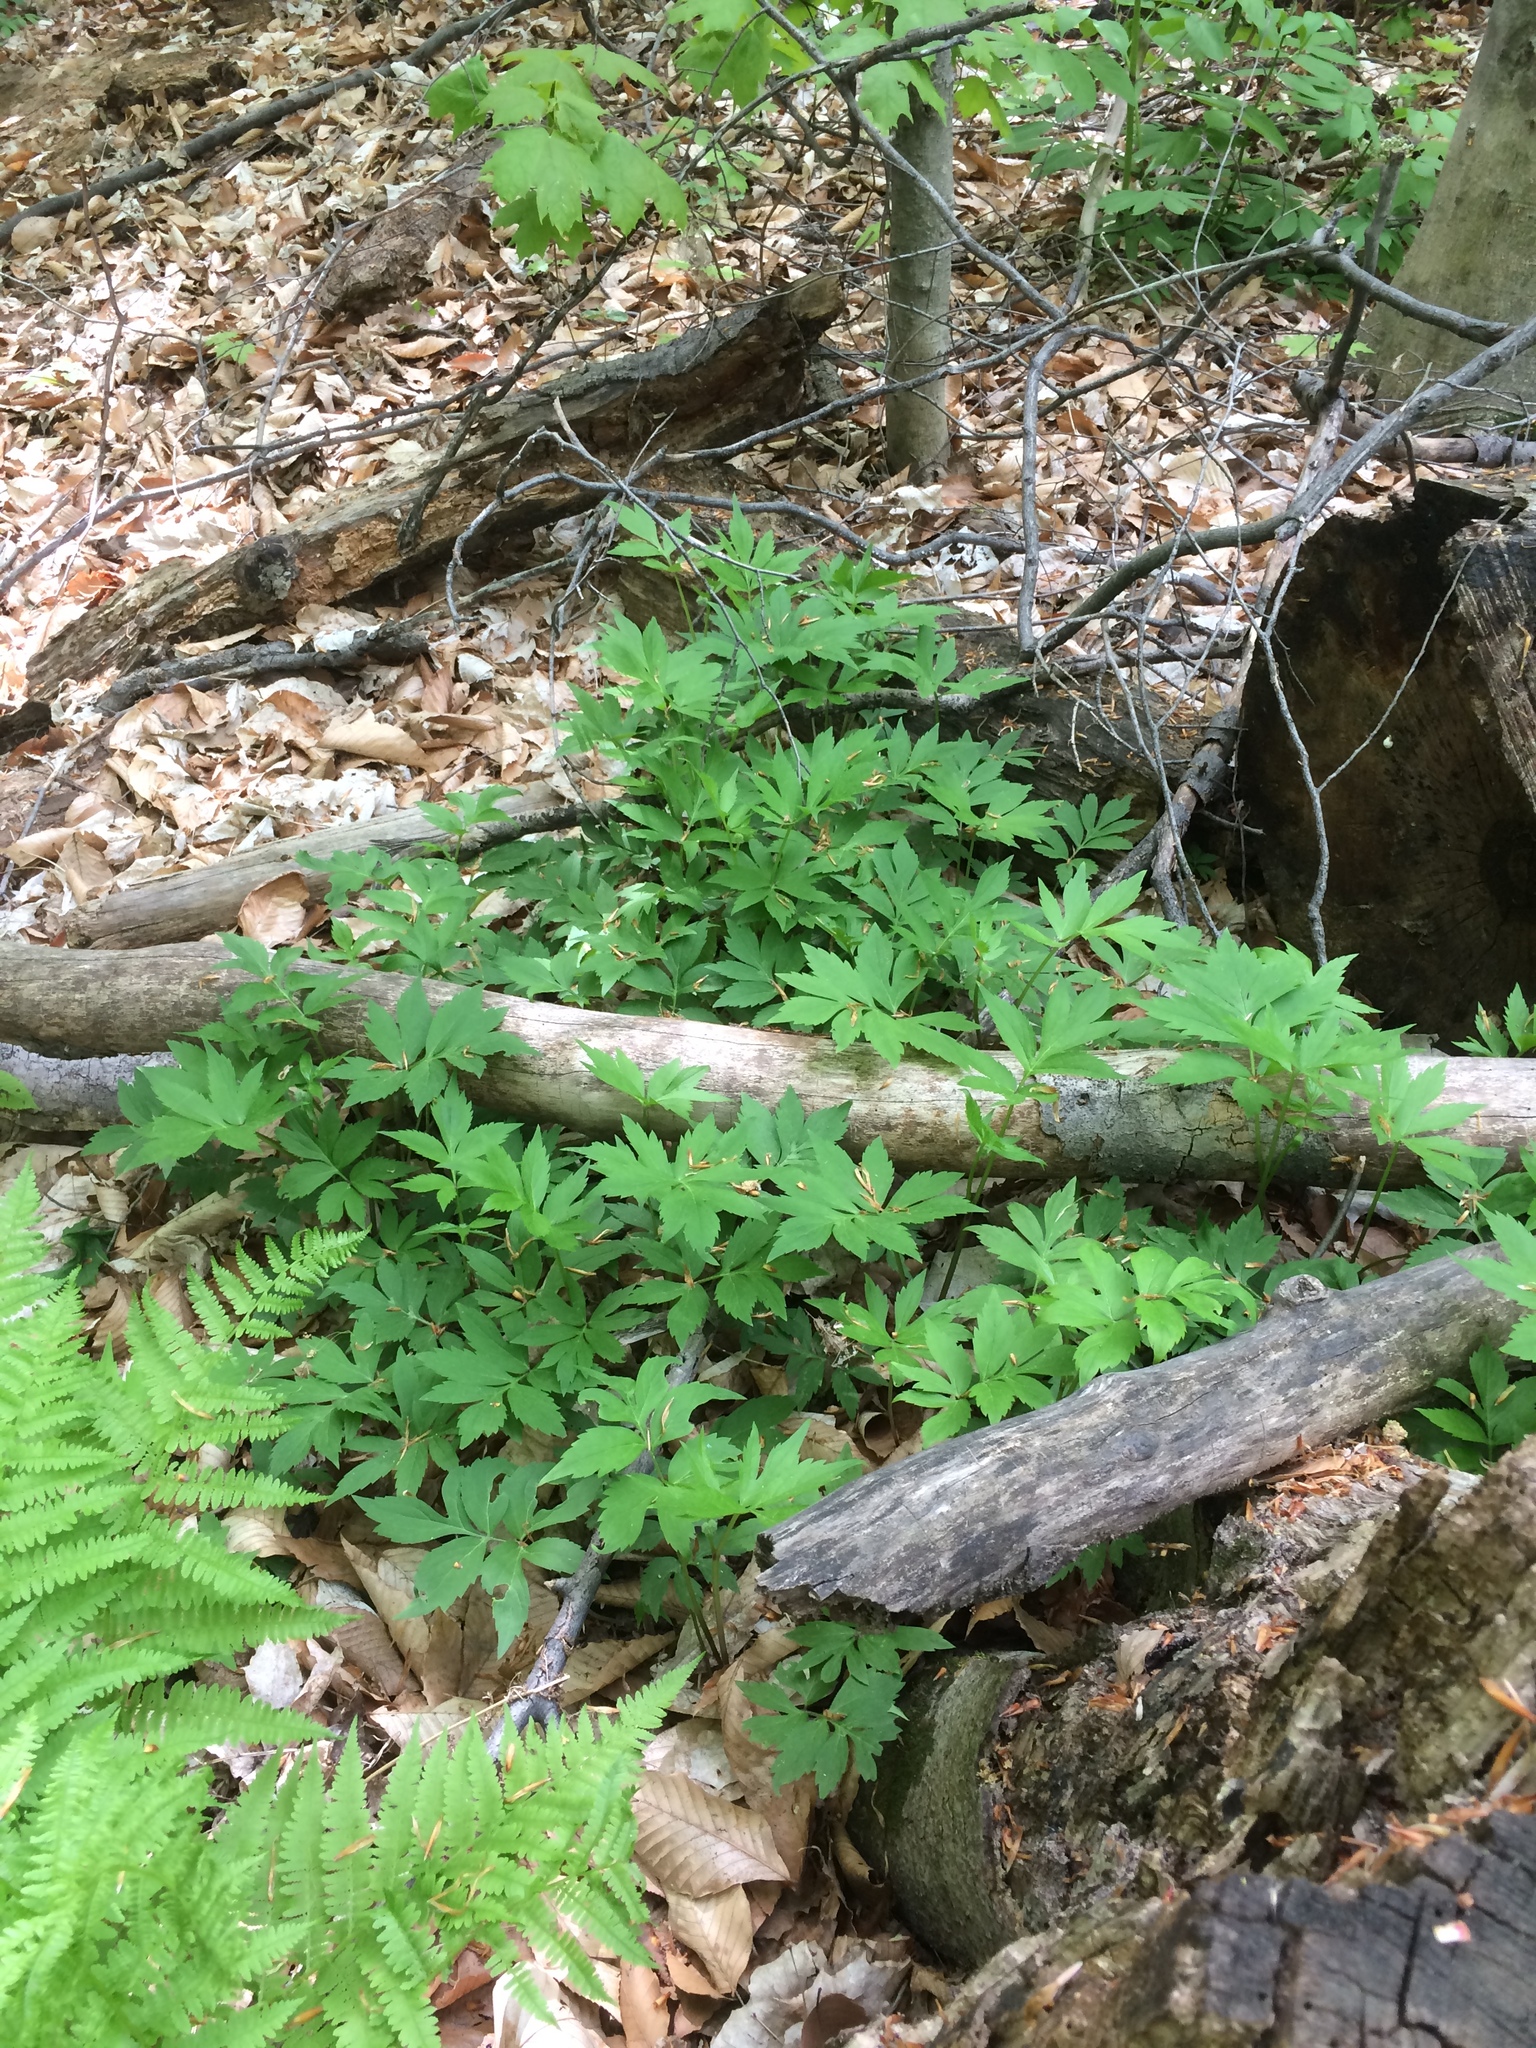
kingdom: Plantae
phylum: Tracheophyta
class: Magnoliopsida
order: Boraginales
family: Hydrophyllaceae
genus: Hydrophyllum
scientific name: Hydrophyllum virginianum
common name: Virginia waterleaf
